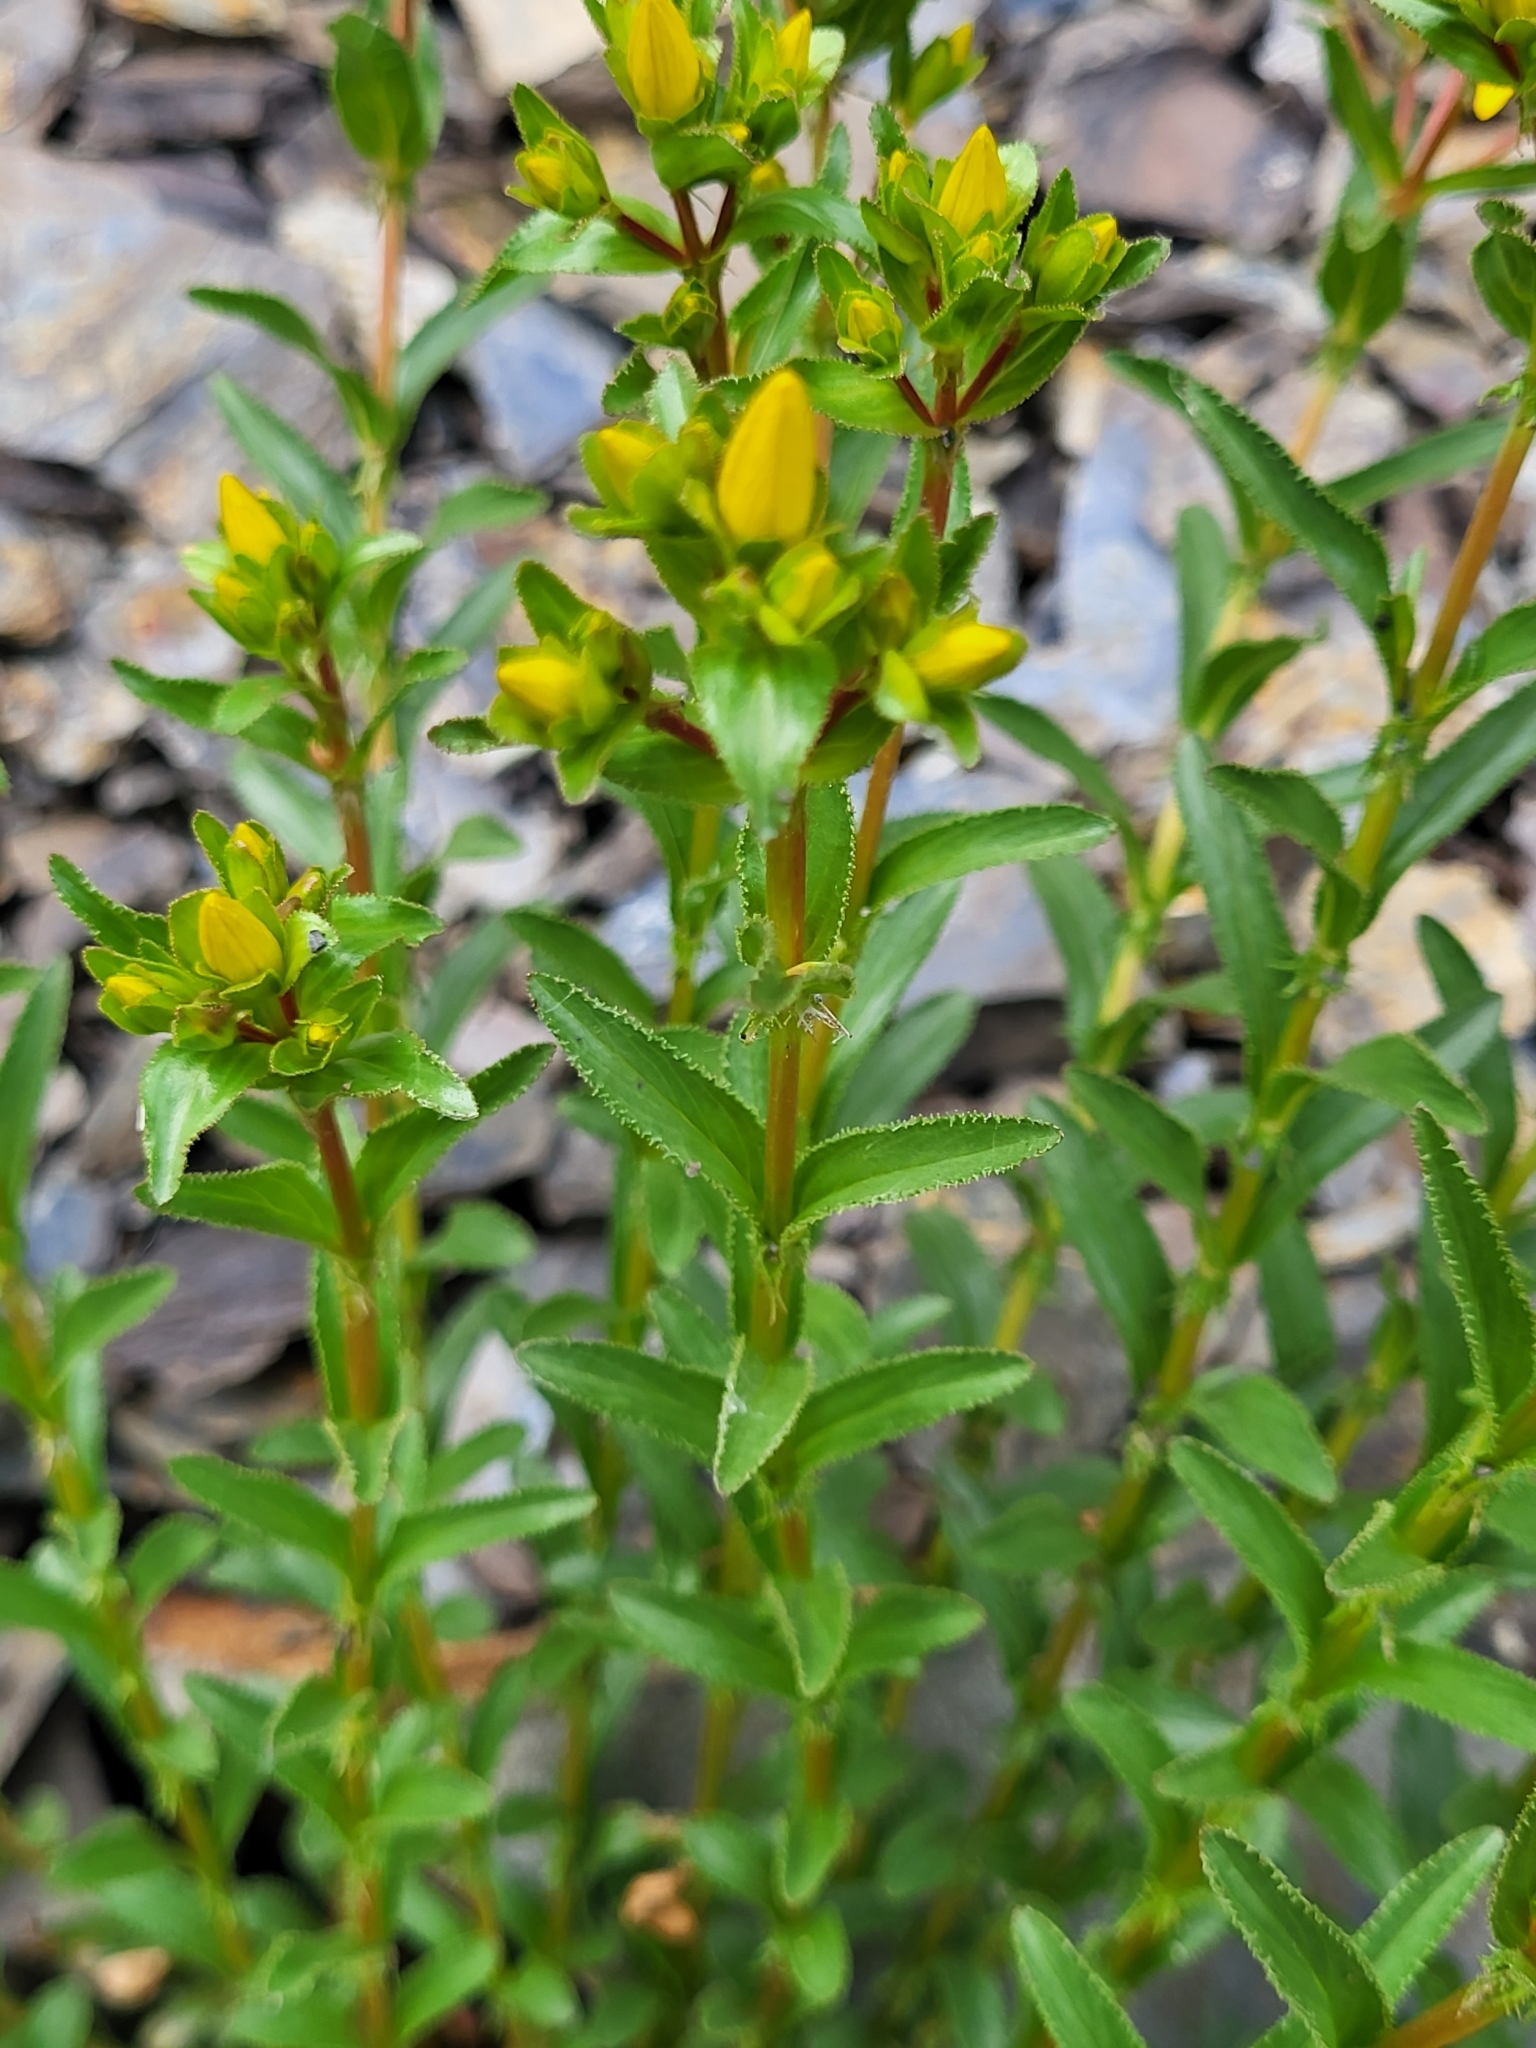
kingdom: Plantae
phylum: Tracheophyta
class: Magnoliopsida
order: Malpighiales
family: Hypericaceae
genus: Hypericum
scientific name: Hypericum orientale
